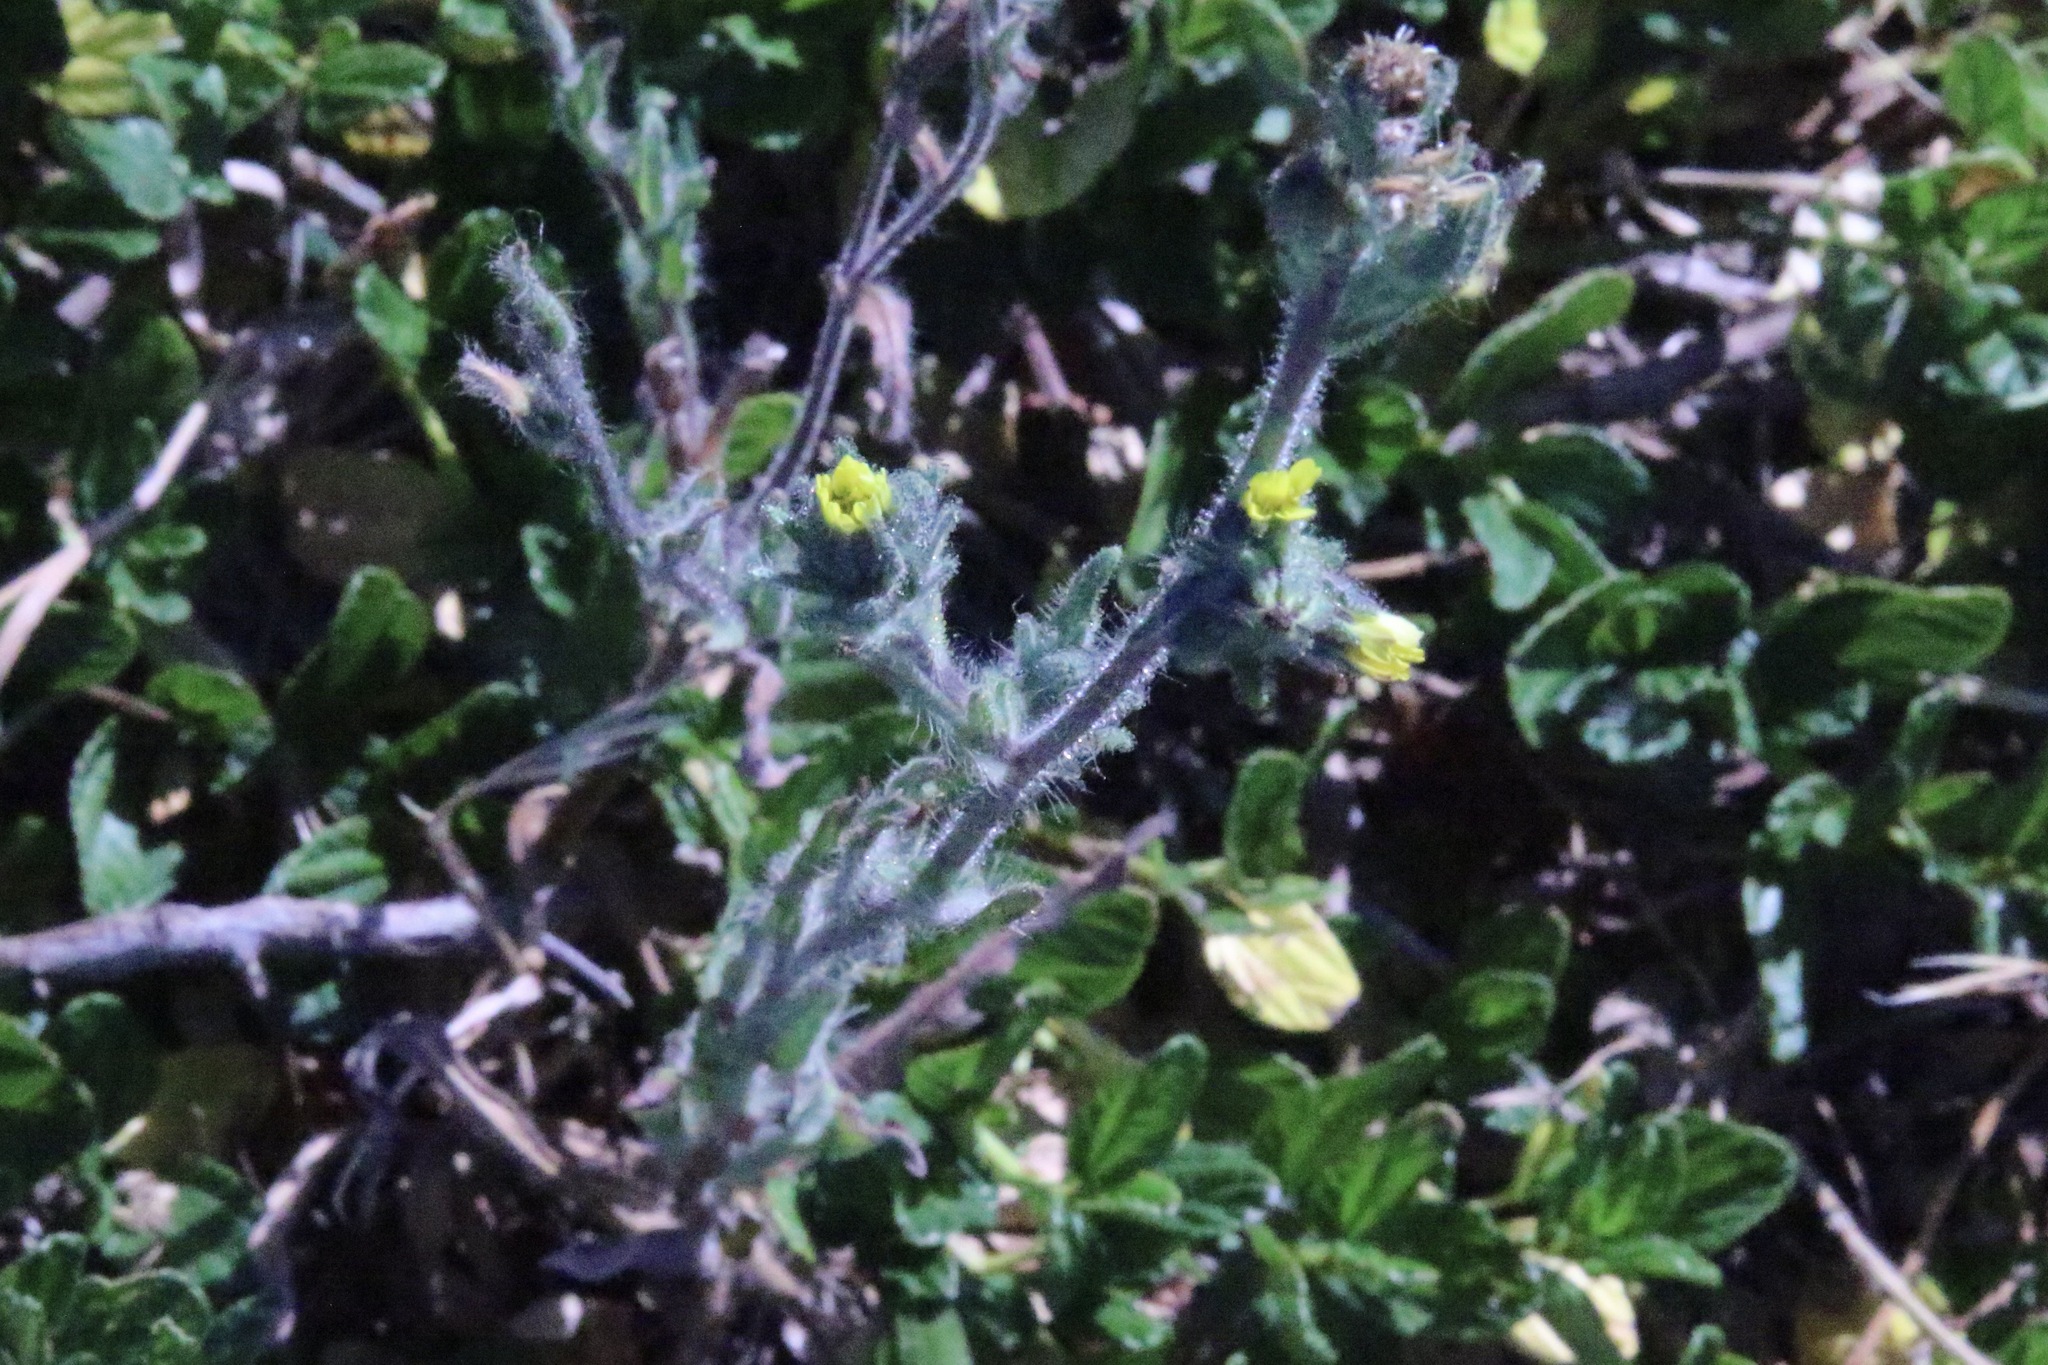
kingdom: Plantae
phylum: Tracheophyta
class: Magnoliopsida
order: Asterales
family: Asteraceae
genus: Madia
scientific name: Madia sativa
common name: Coast tarweed
